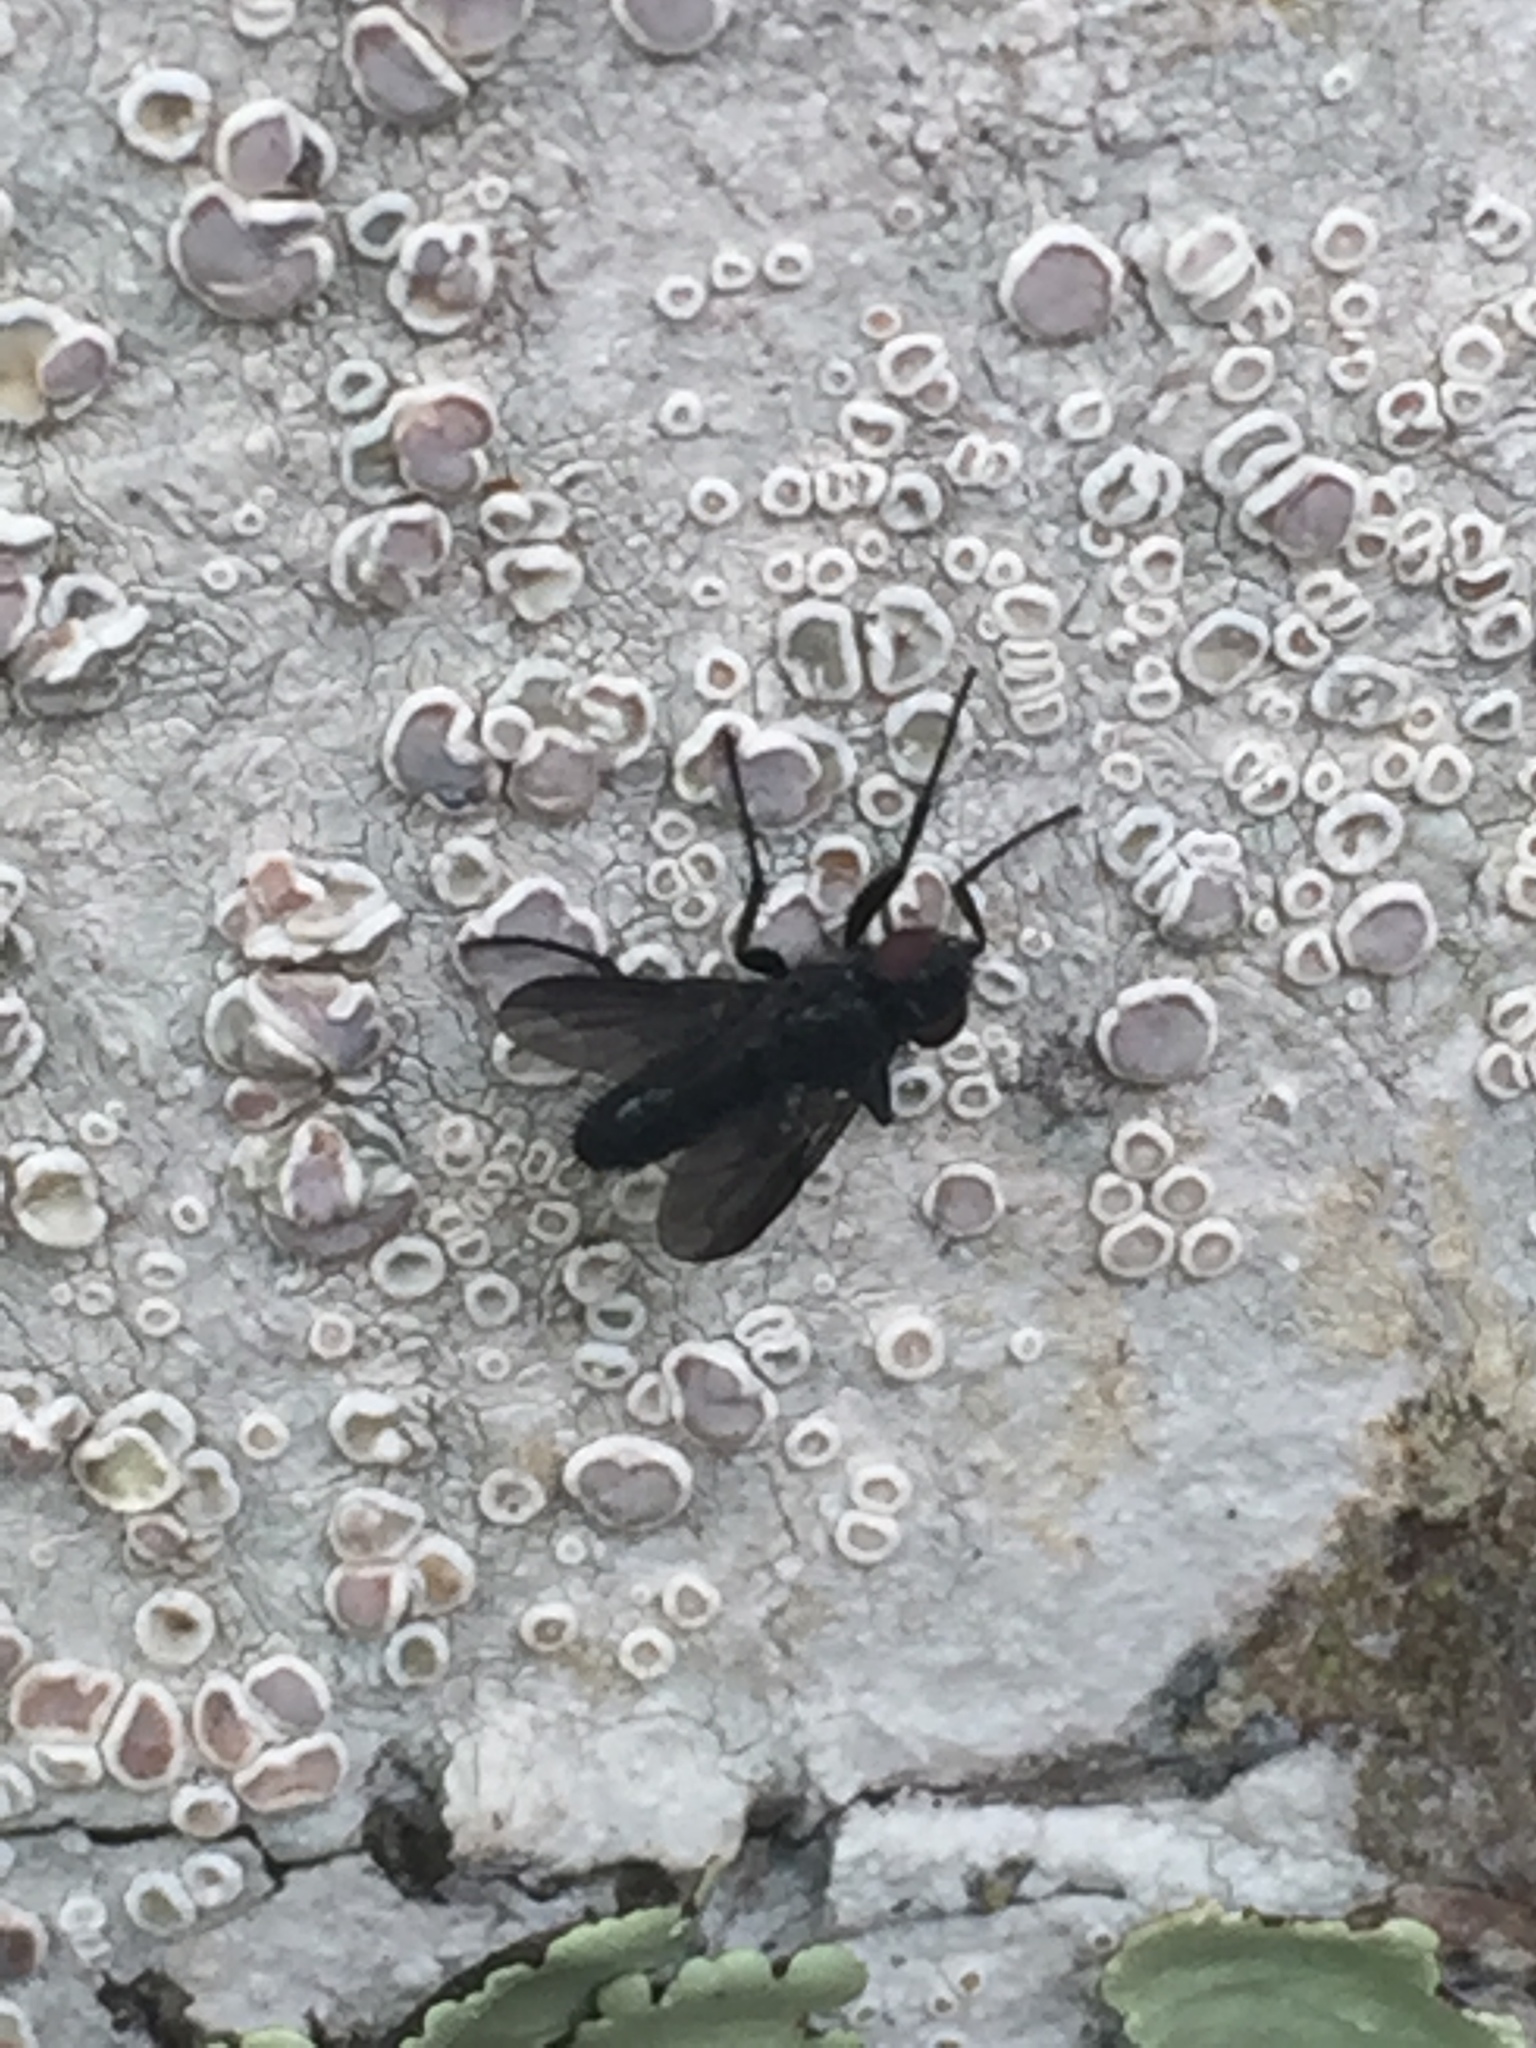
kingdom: Animalia
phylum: Arthropoda
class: Insecta
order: Diptera
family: Calliphoridae
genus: Melanophora
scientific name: Melanophora roralis
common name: Smoky-winged woodlouse-fly
